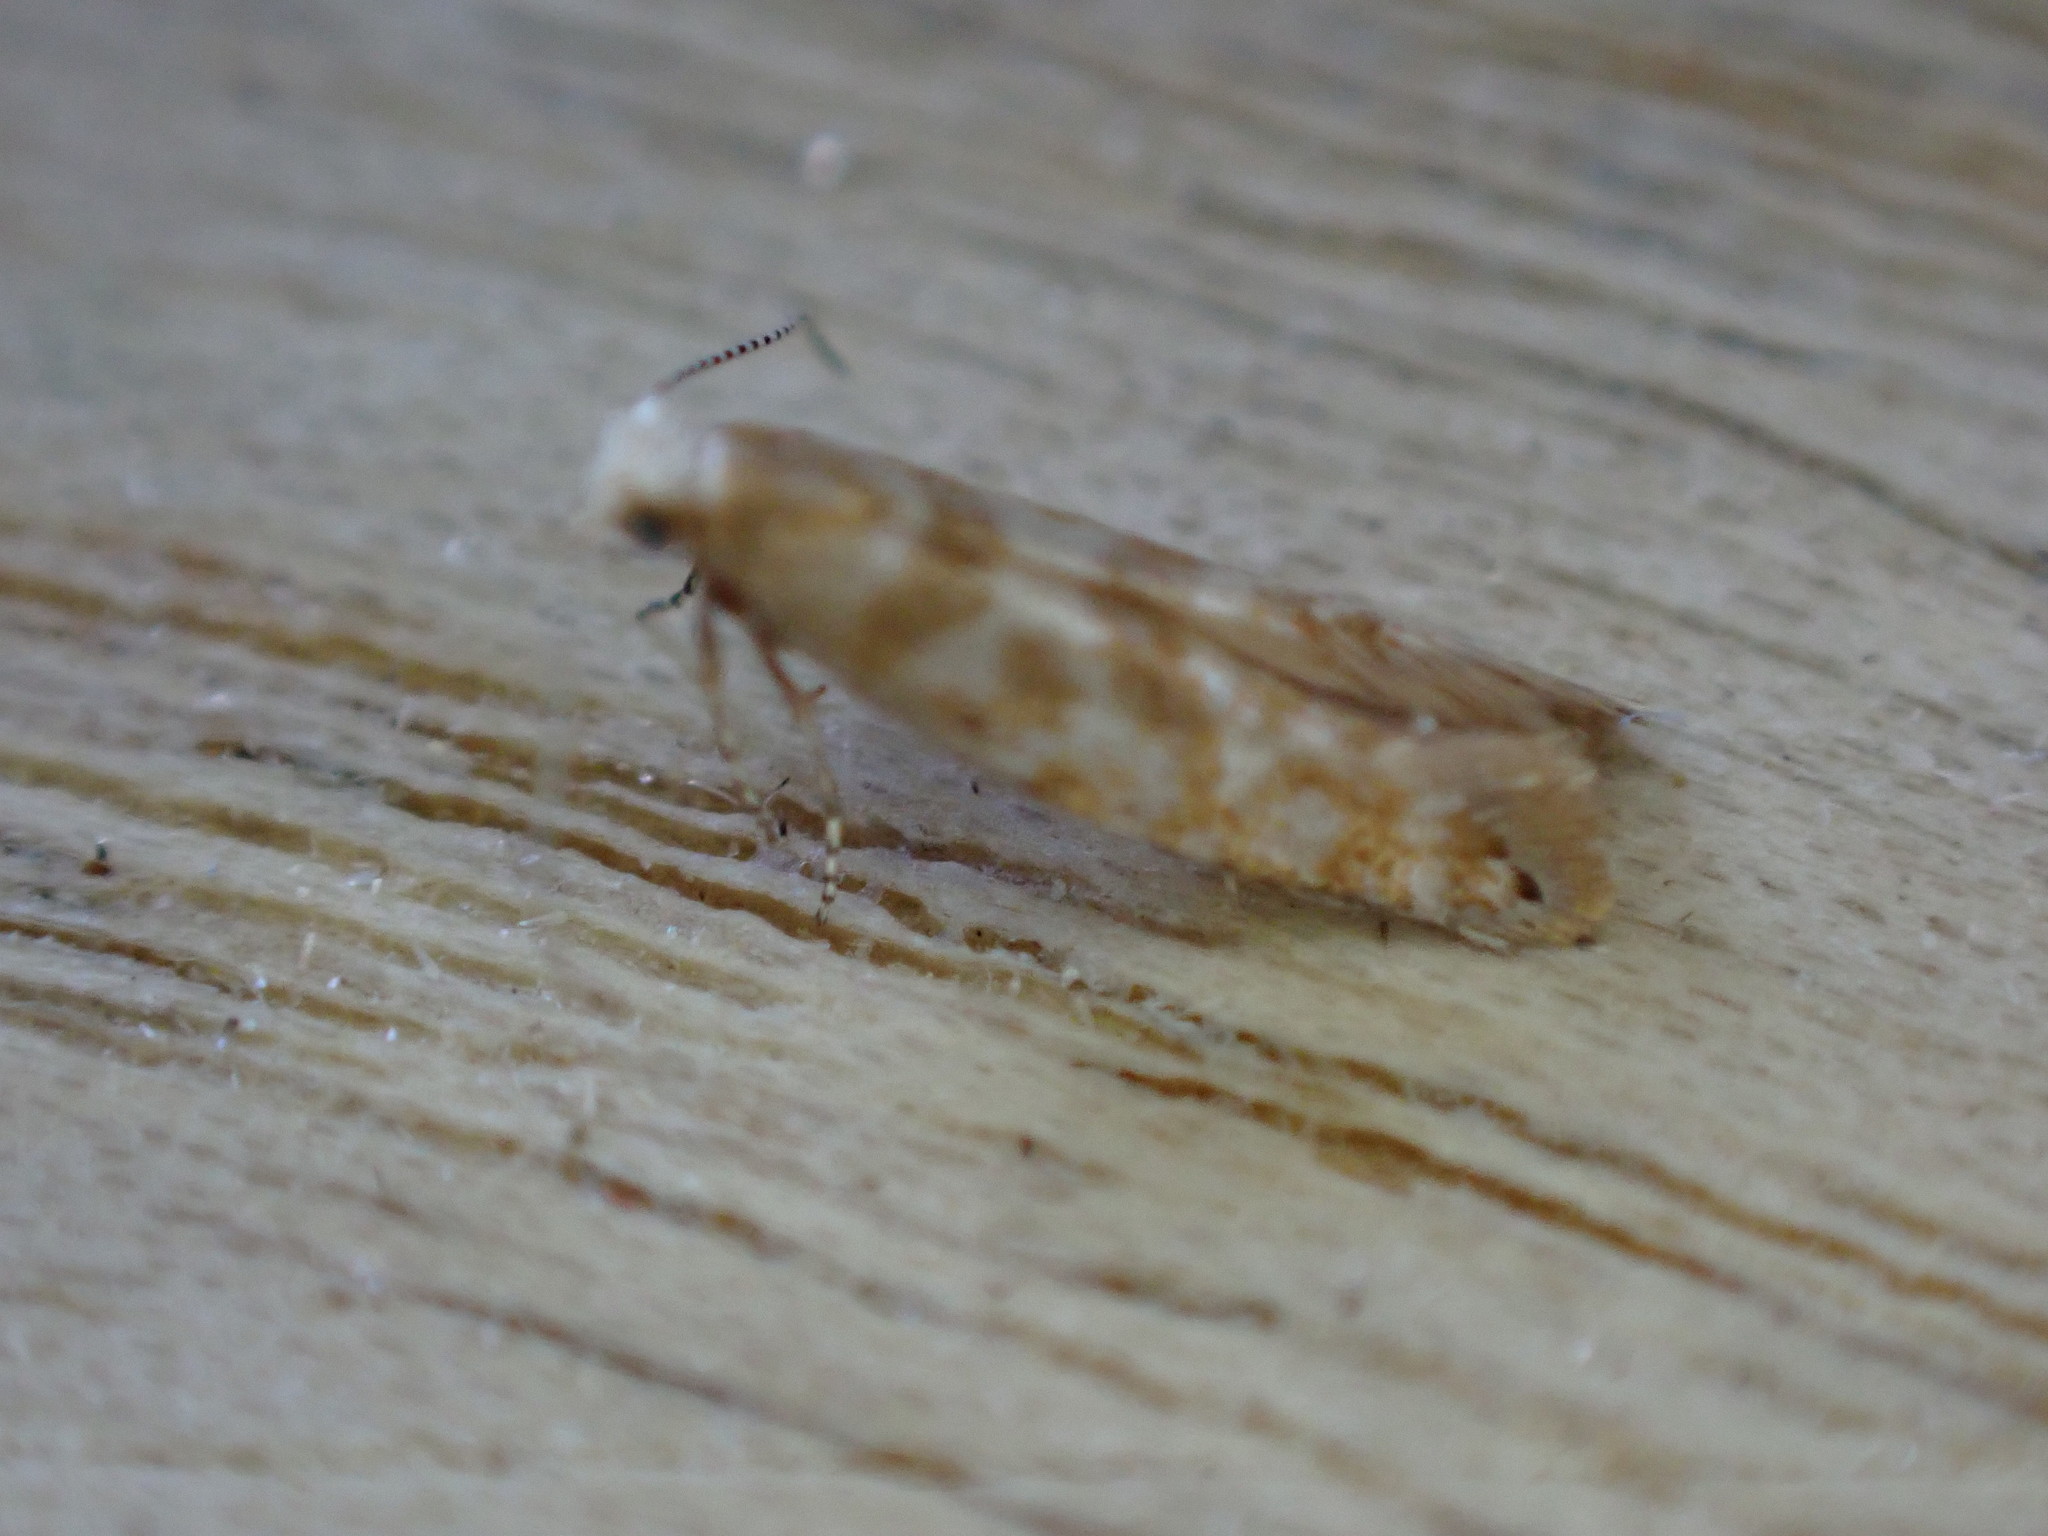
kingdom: Animalia
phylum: Arthropoda
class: Insecta
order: Lepidoptera
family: Argyresthiidae
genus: Argyresthia
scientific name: Argyresthia cupressella
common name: Cypress tip moth
